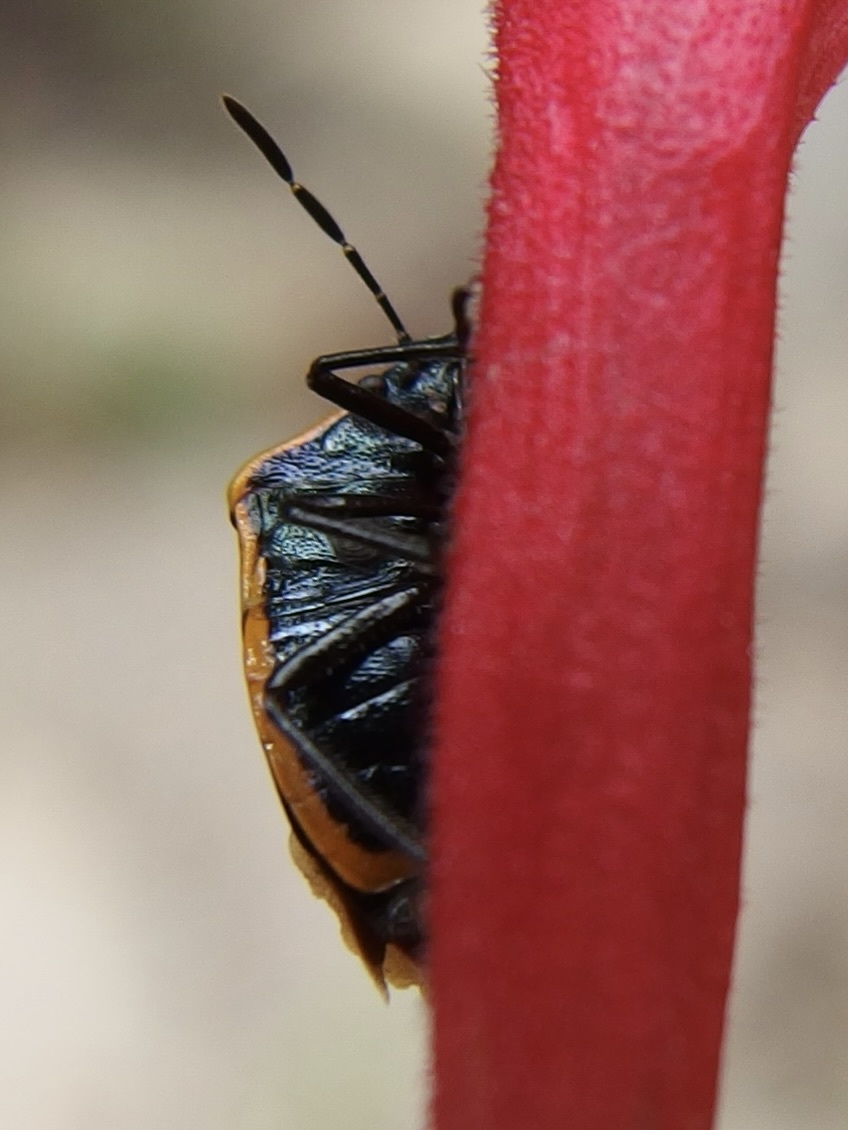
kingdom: Animalia
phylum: Arthropoda
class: Insecta
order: Hemiptera
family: Pentatomidae
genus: Cosmopepla
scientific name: Cosmopepla decorata
